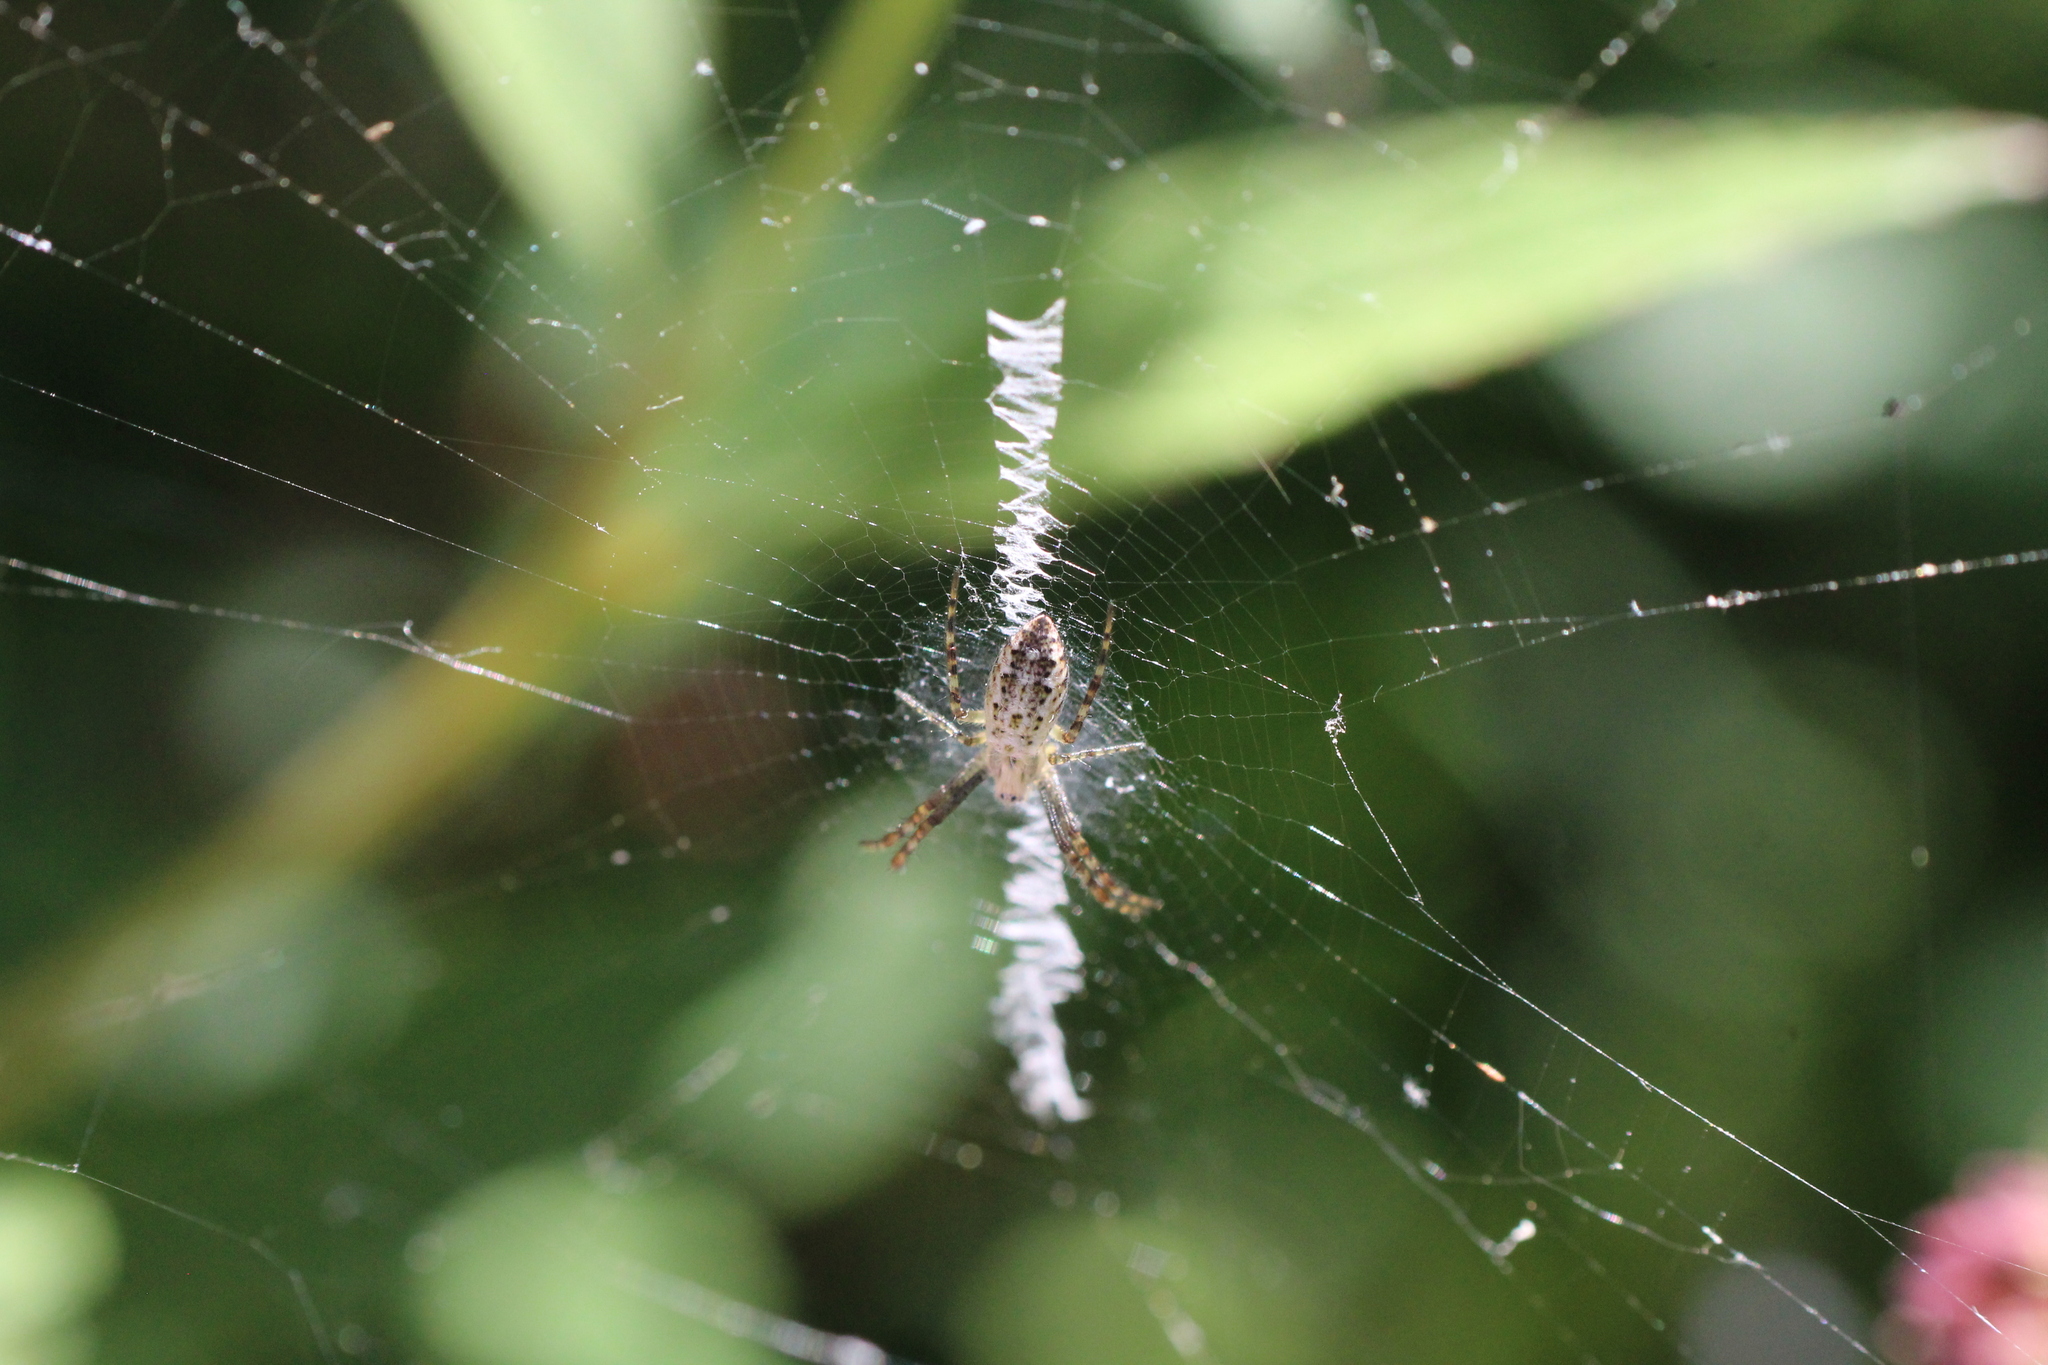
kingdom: Animalia
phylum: Arthropoda
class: Arachnida
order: Araneae
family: Araneidae
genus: Argiope
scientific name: Argiope bruennichi
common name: Wasp spider
